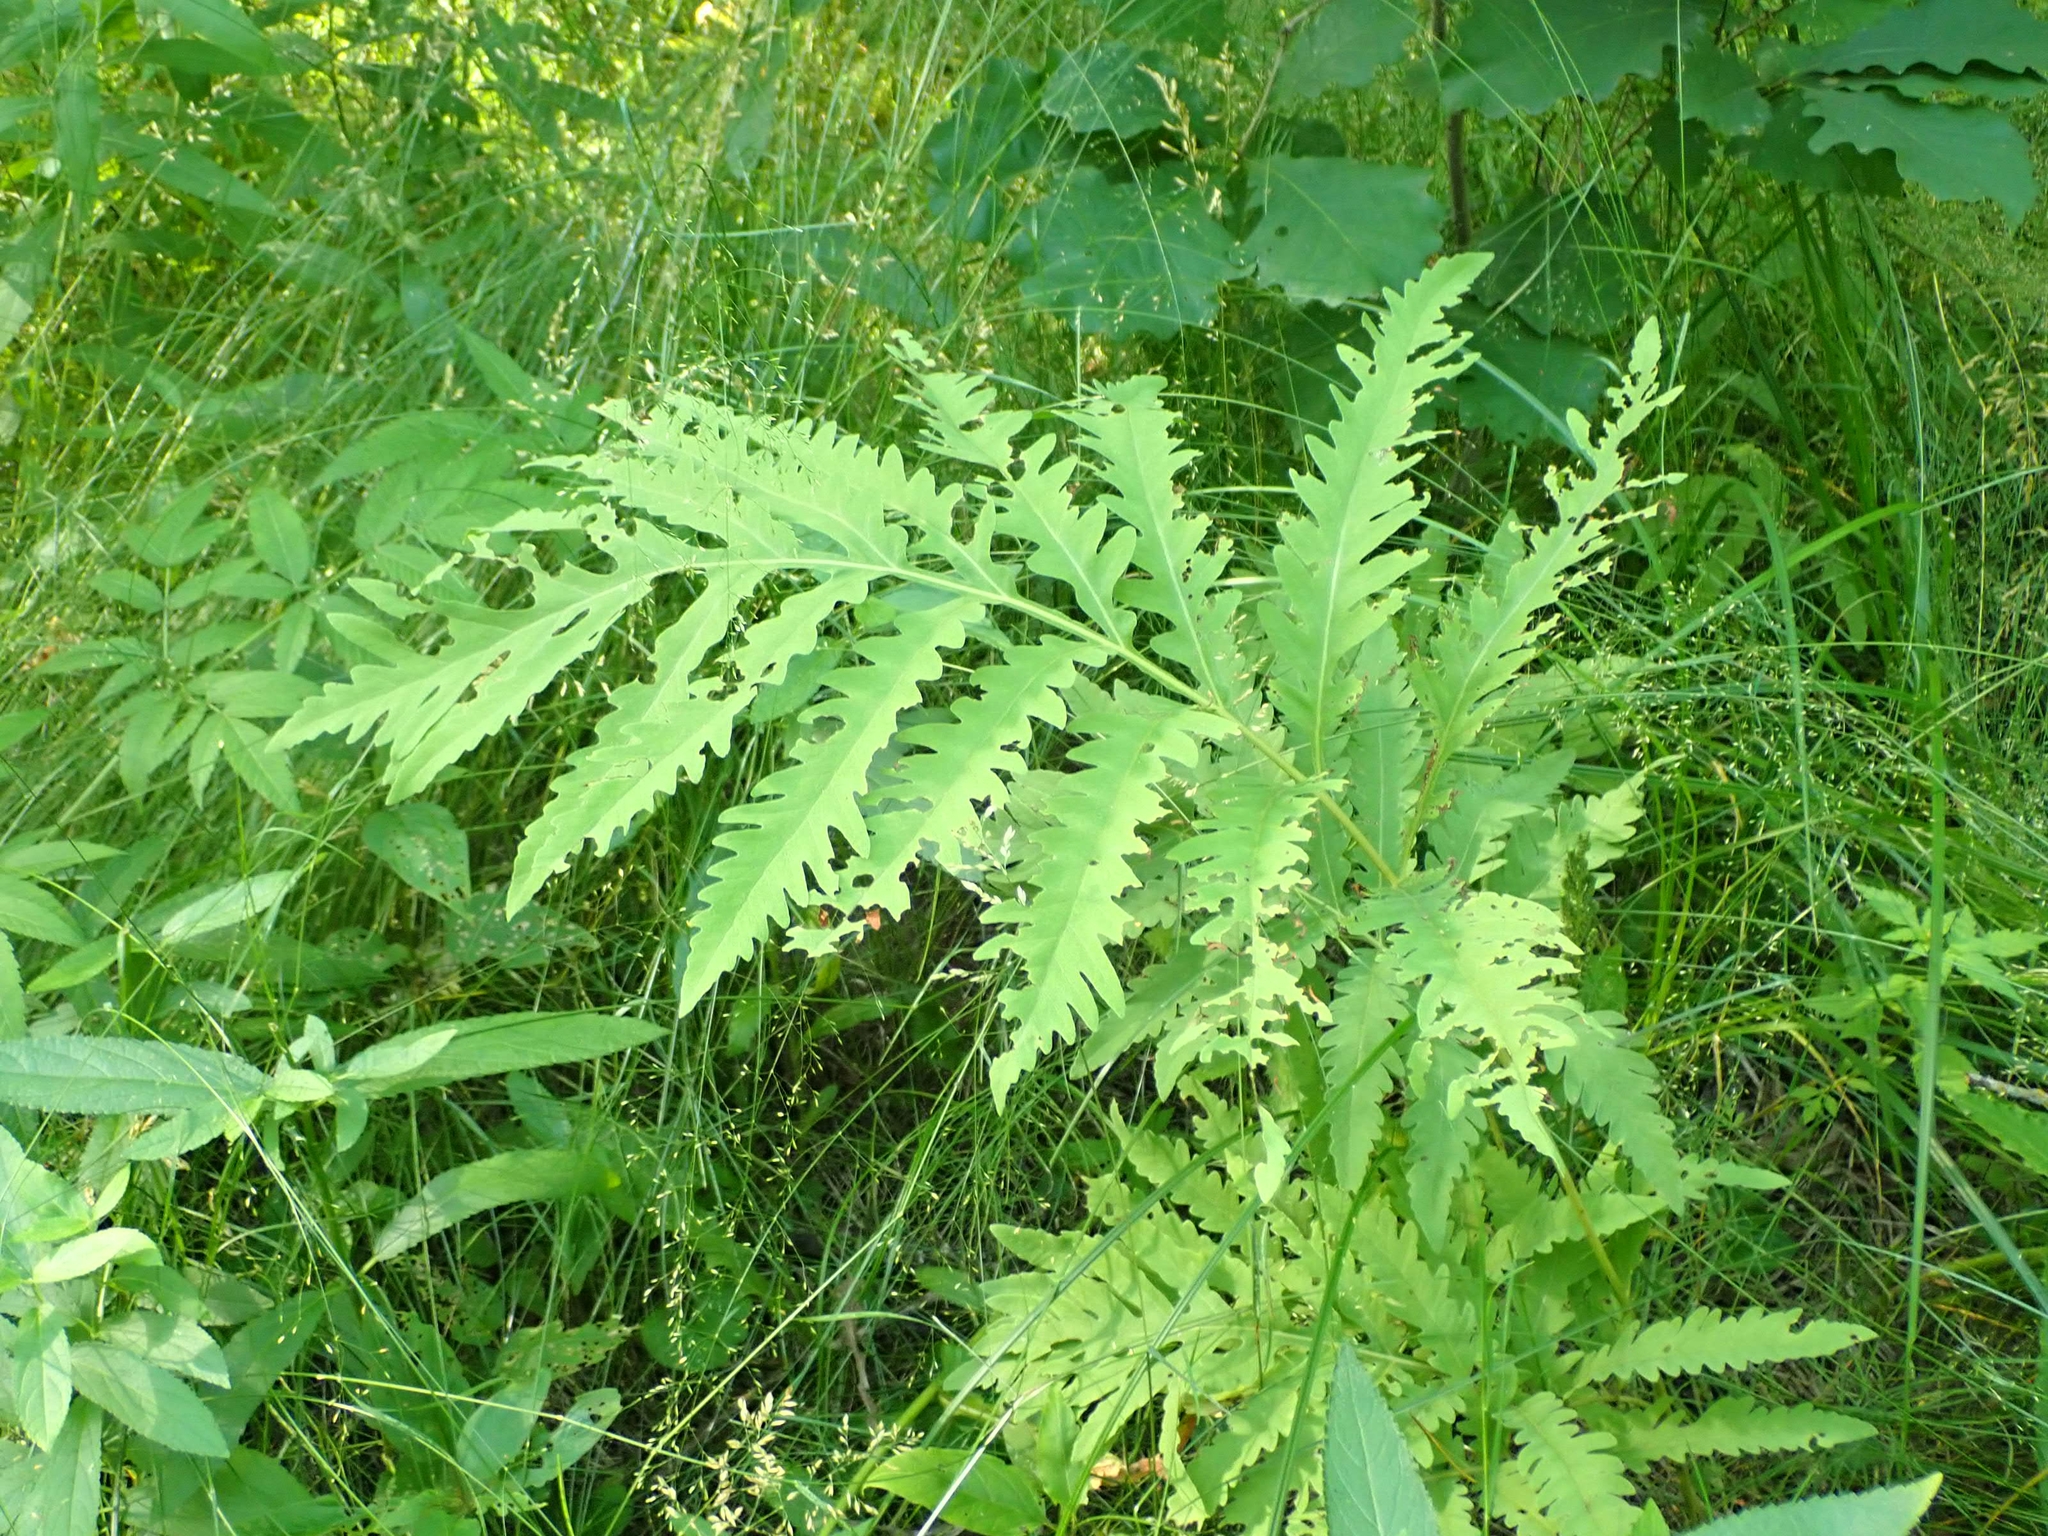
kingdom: Plantae
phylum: Tracheophyta
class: Polypodiopsida
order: Polypodiales
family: Onocleaceae
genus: Onoclea
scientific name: Onoclea sensibilis
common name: Sensitive fern
